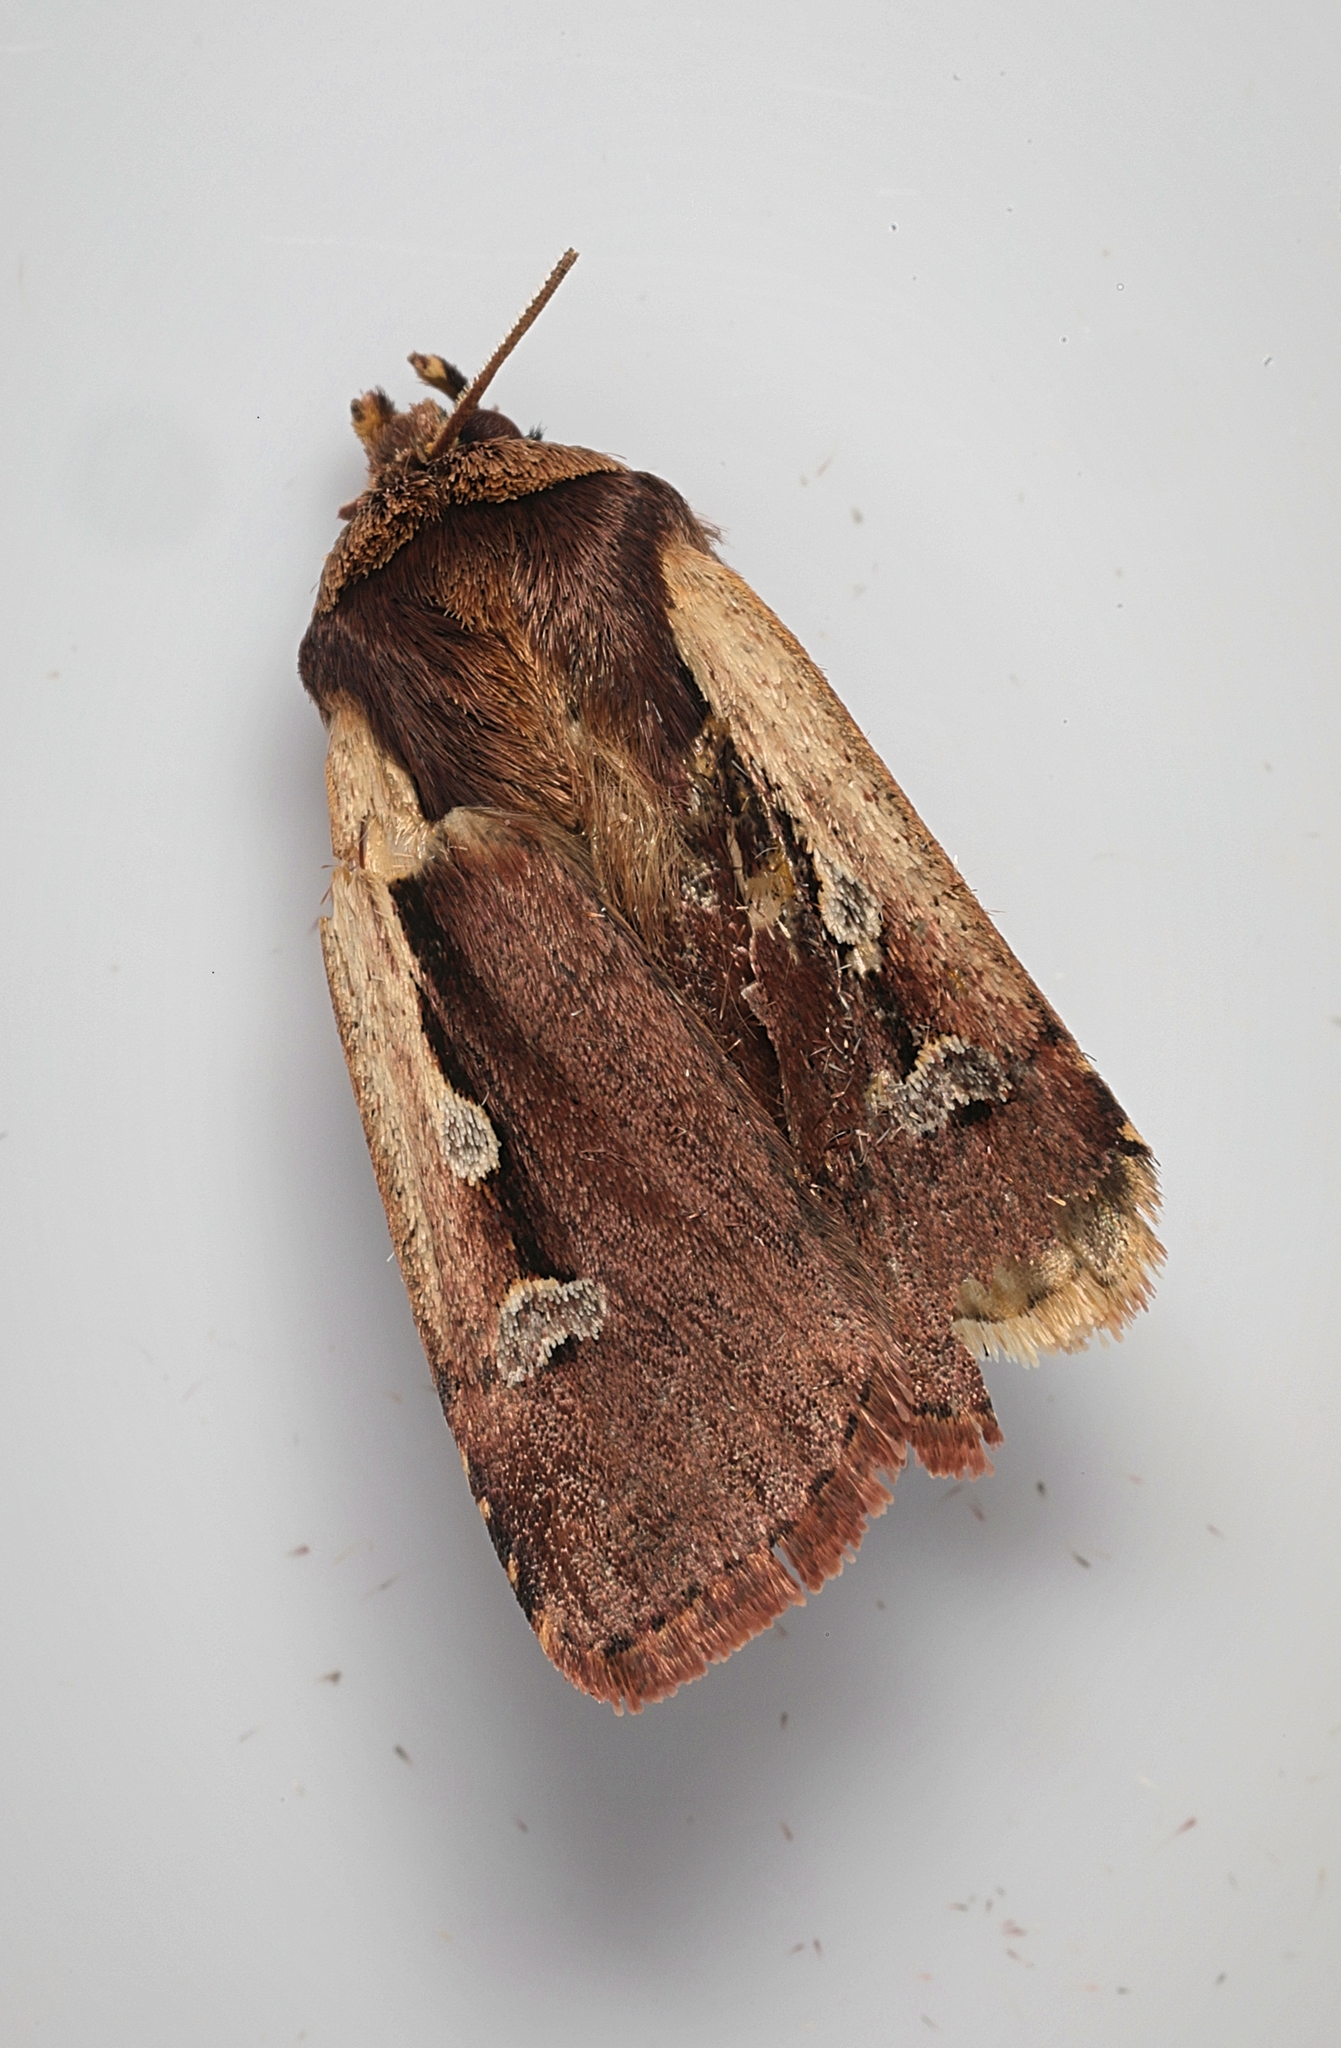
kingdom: Animalia
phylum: Arthropoda
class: Insecta
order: Lepidoptera
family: Noctuidae
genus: Ochropleura
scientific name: Ochropleura plecta
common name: Flame shoulder
